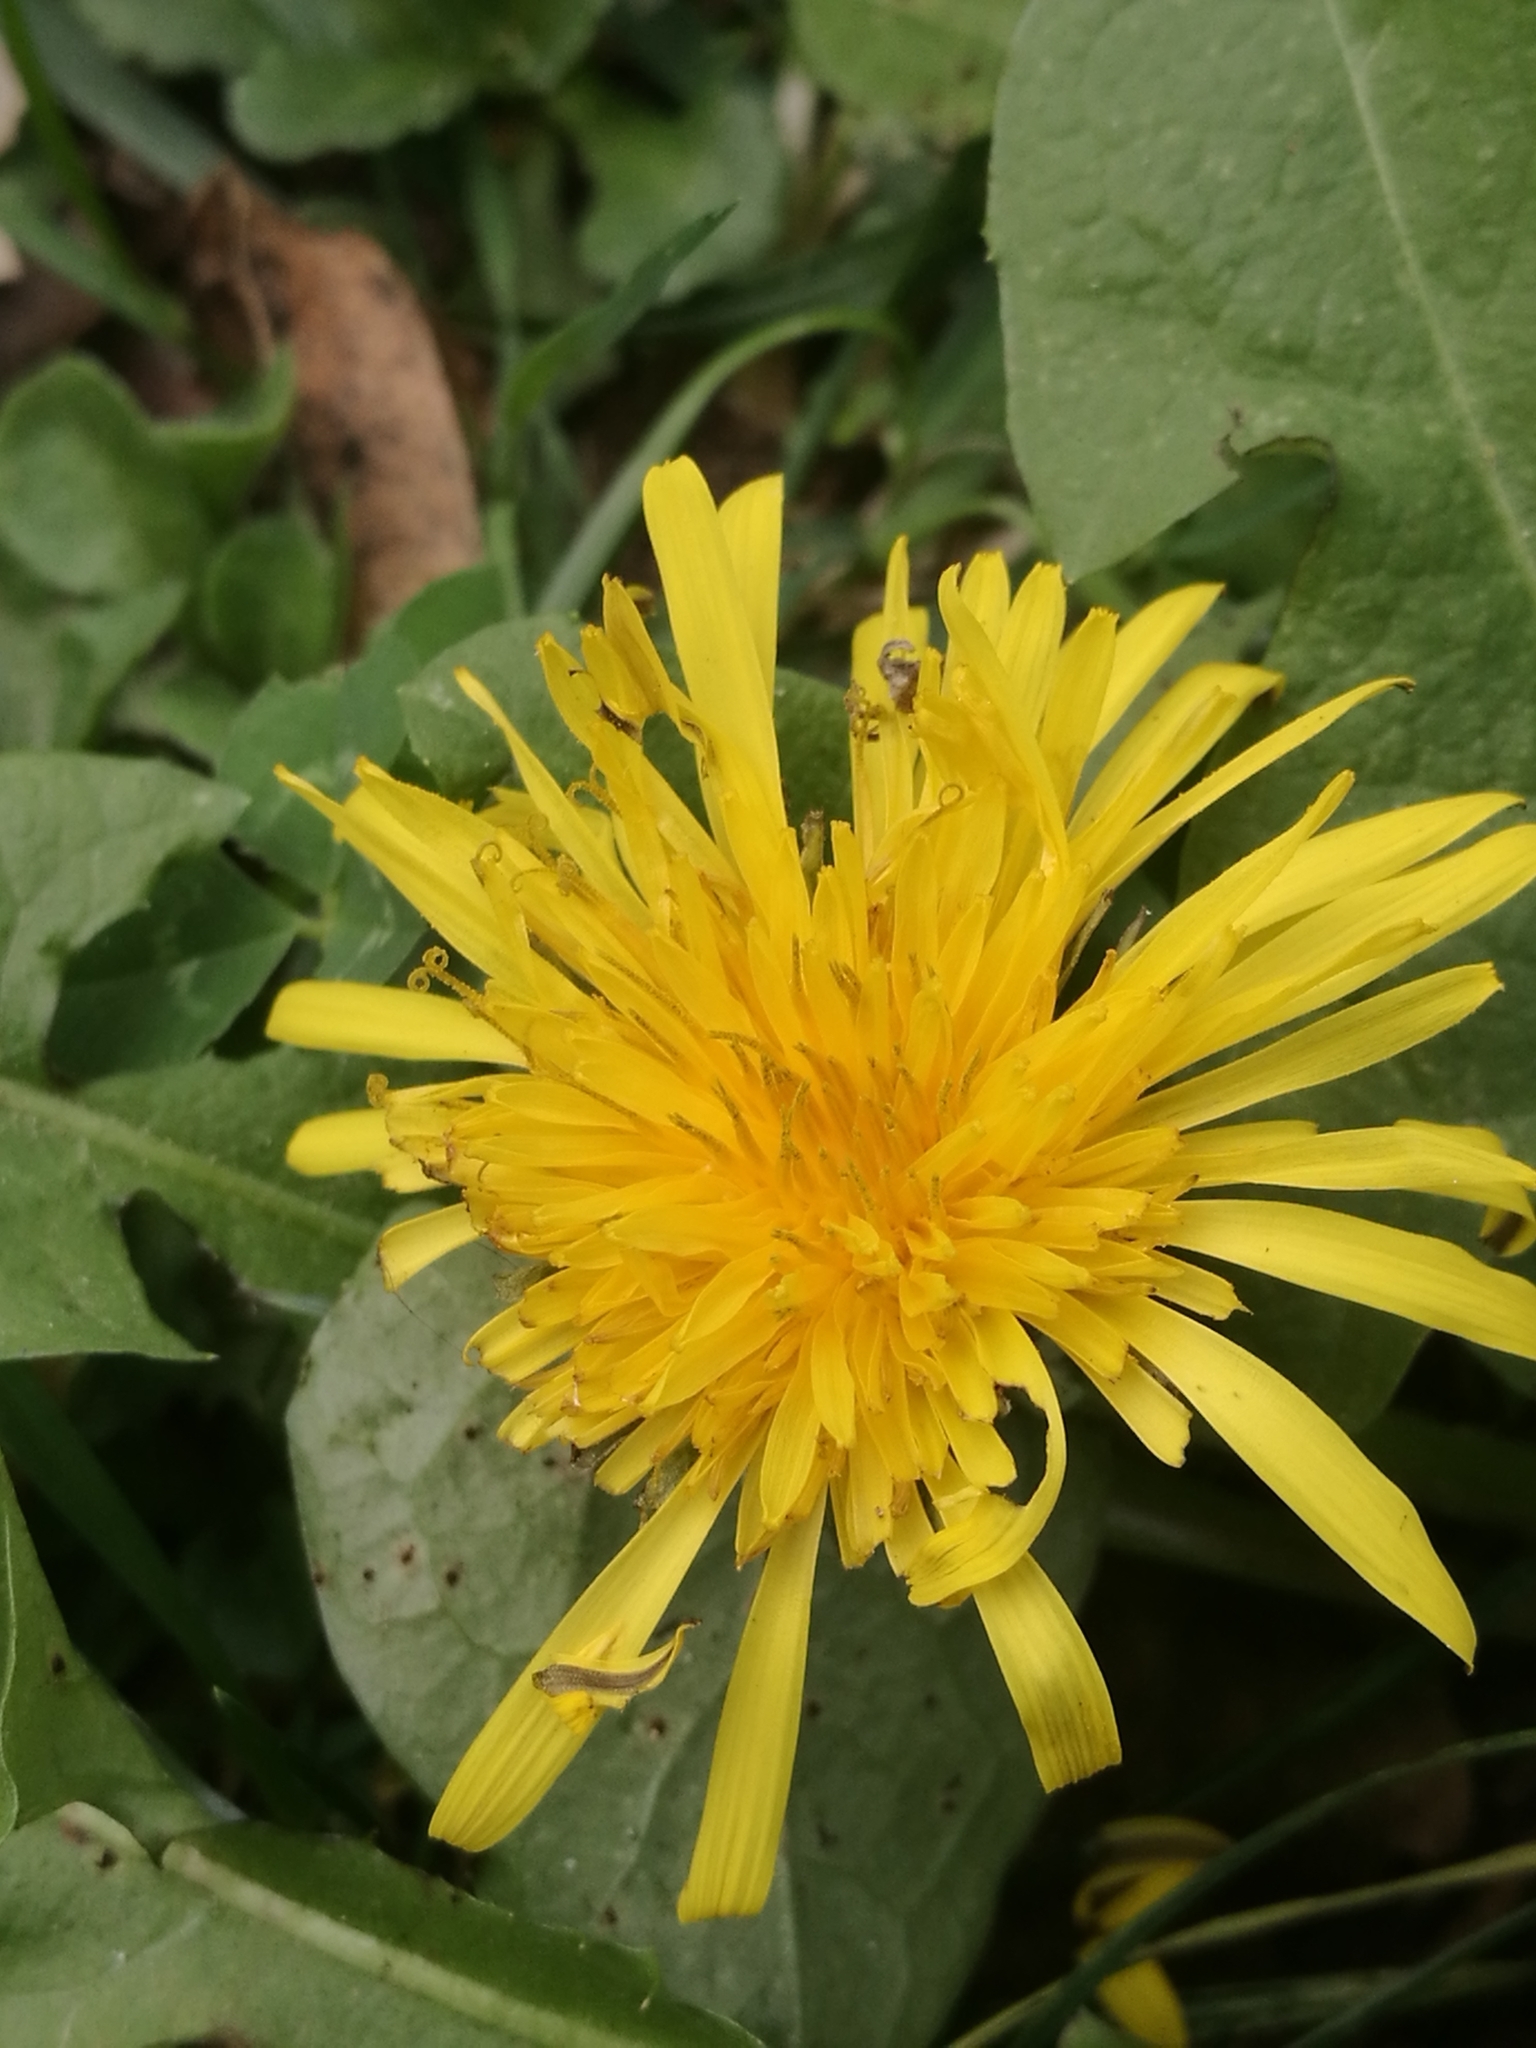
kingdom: Plantae
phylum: Tracheophyta
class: Magnoliopsida
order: Asterales
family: Asteraceae
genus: Taraxacum
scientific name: Taraxacum officinale
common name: Common dandelion
